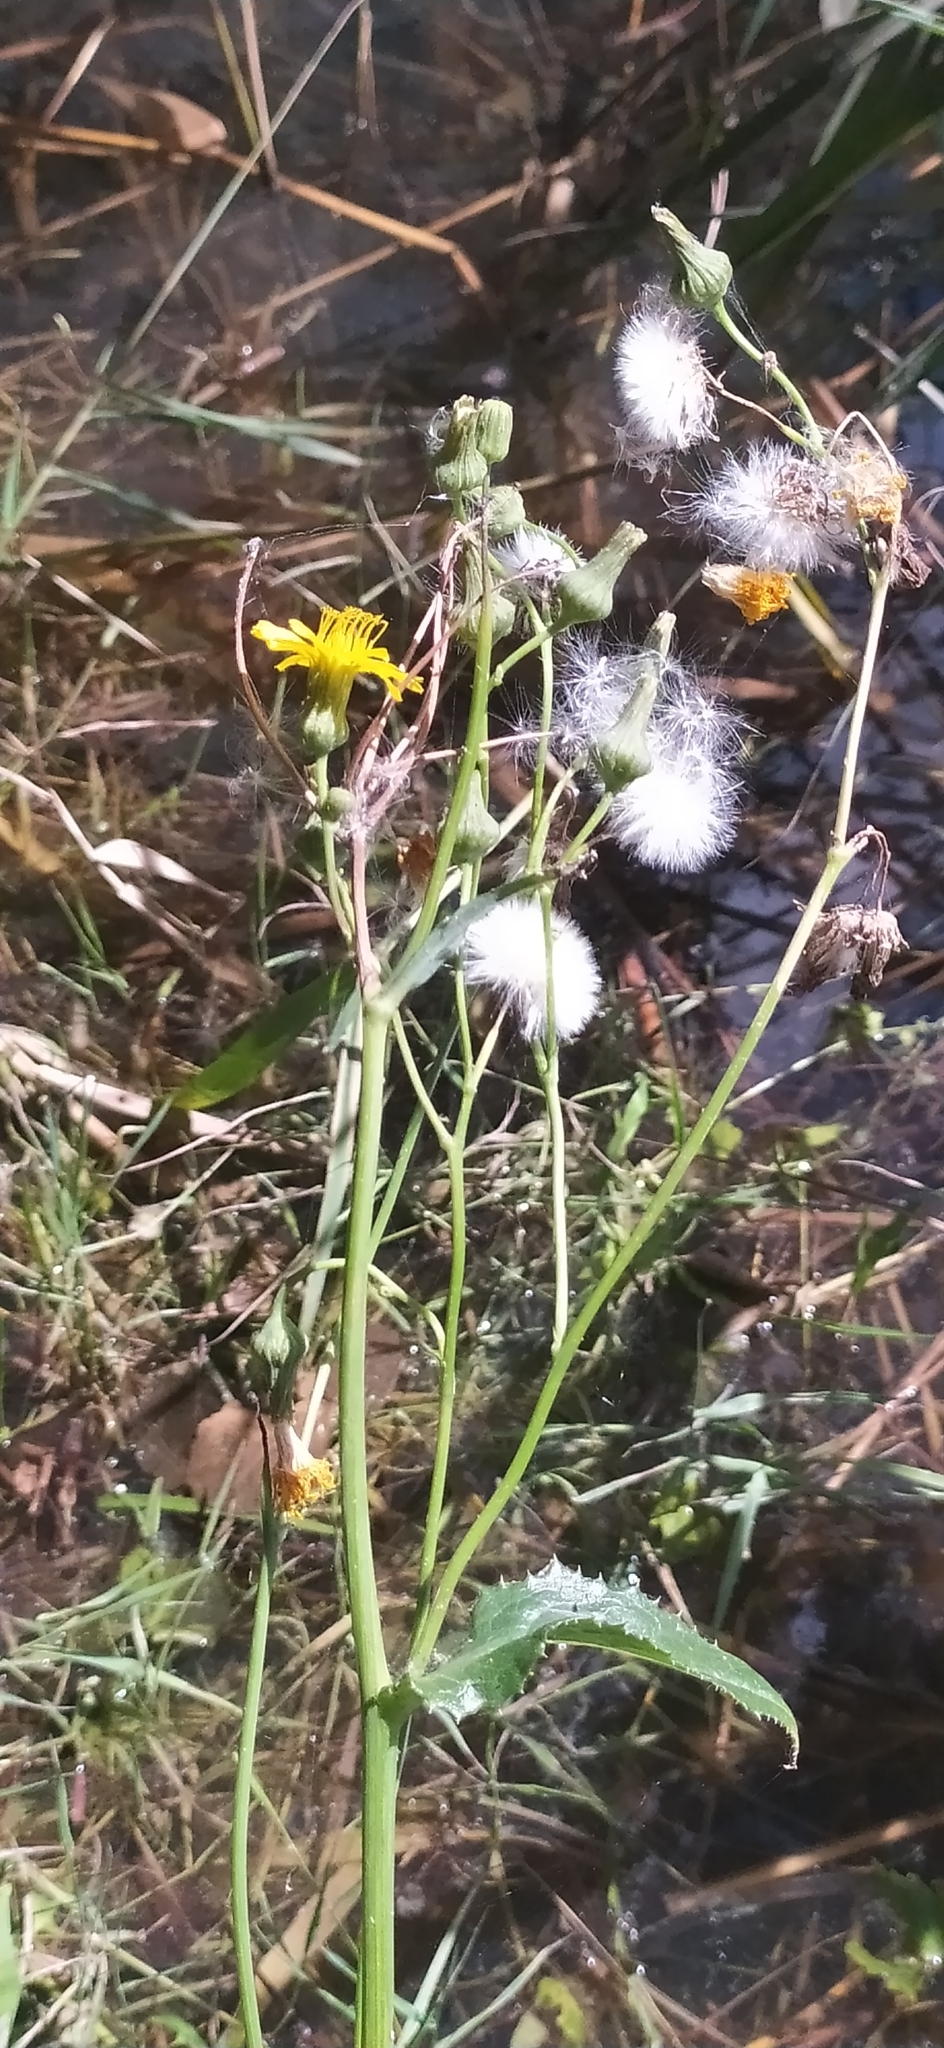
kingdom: Plantae
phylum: Tracheophyta
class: Magnoliopsida
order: Asterales
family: Asteraceae
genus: Sonchus
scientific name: Sonchus arvensis
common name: Perennial sow-thistle
